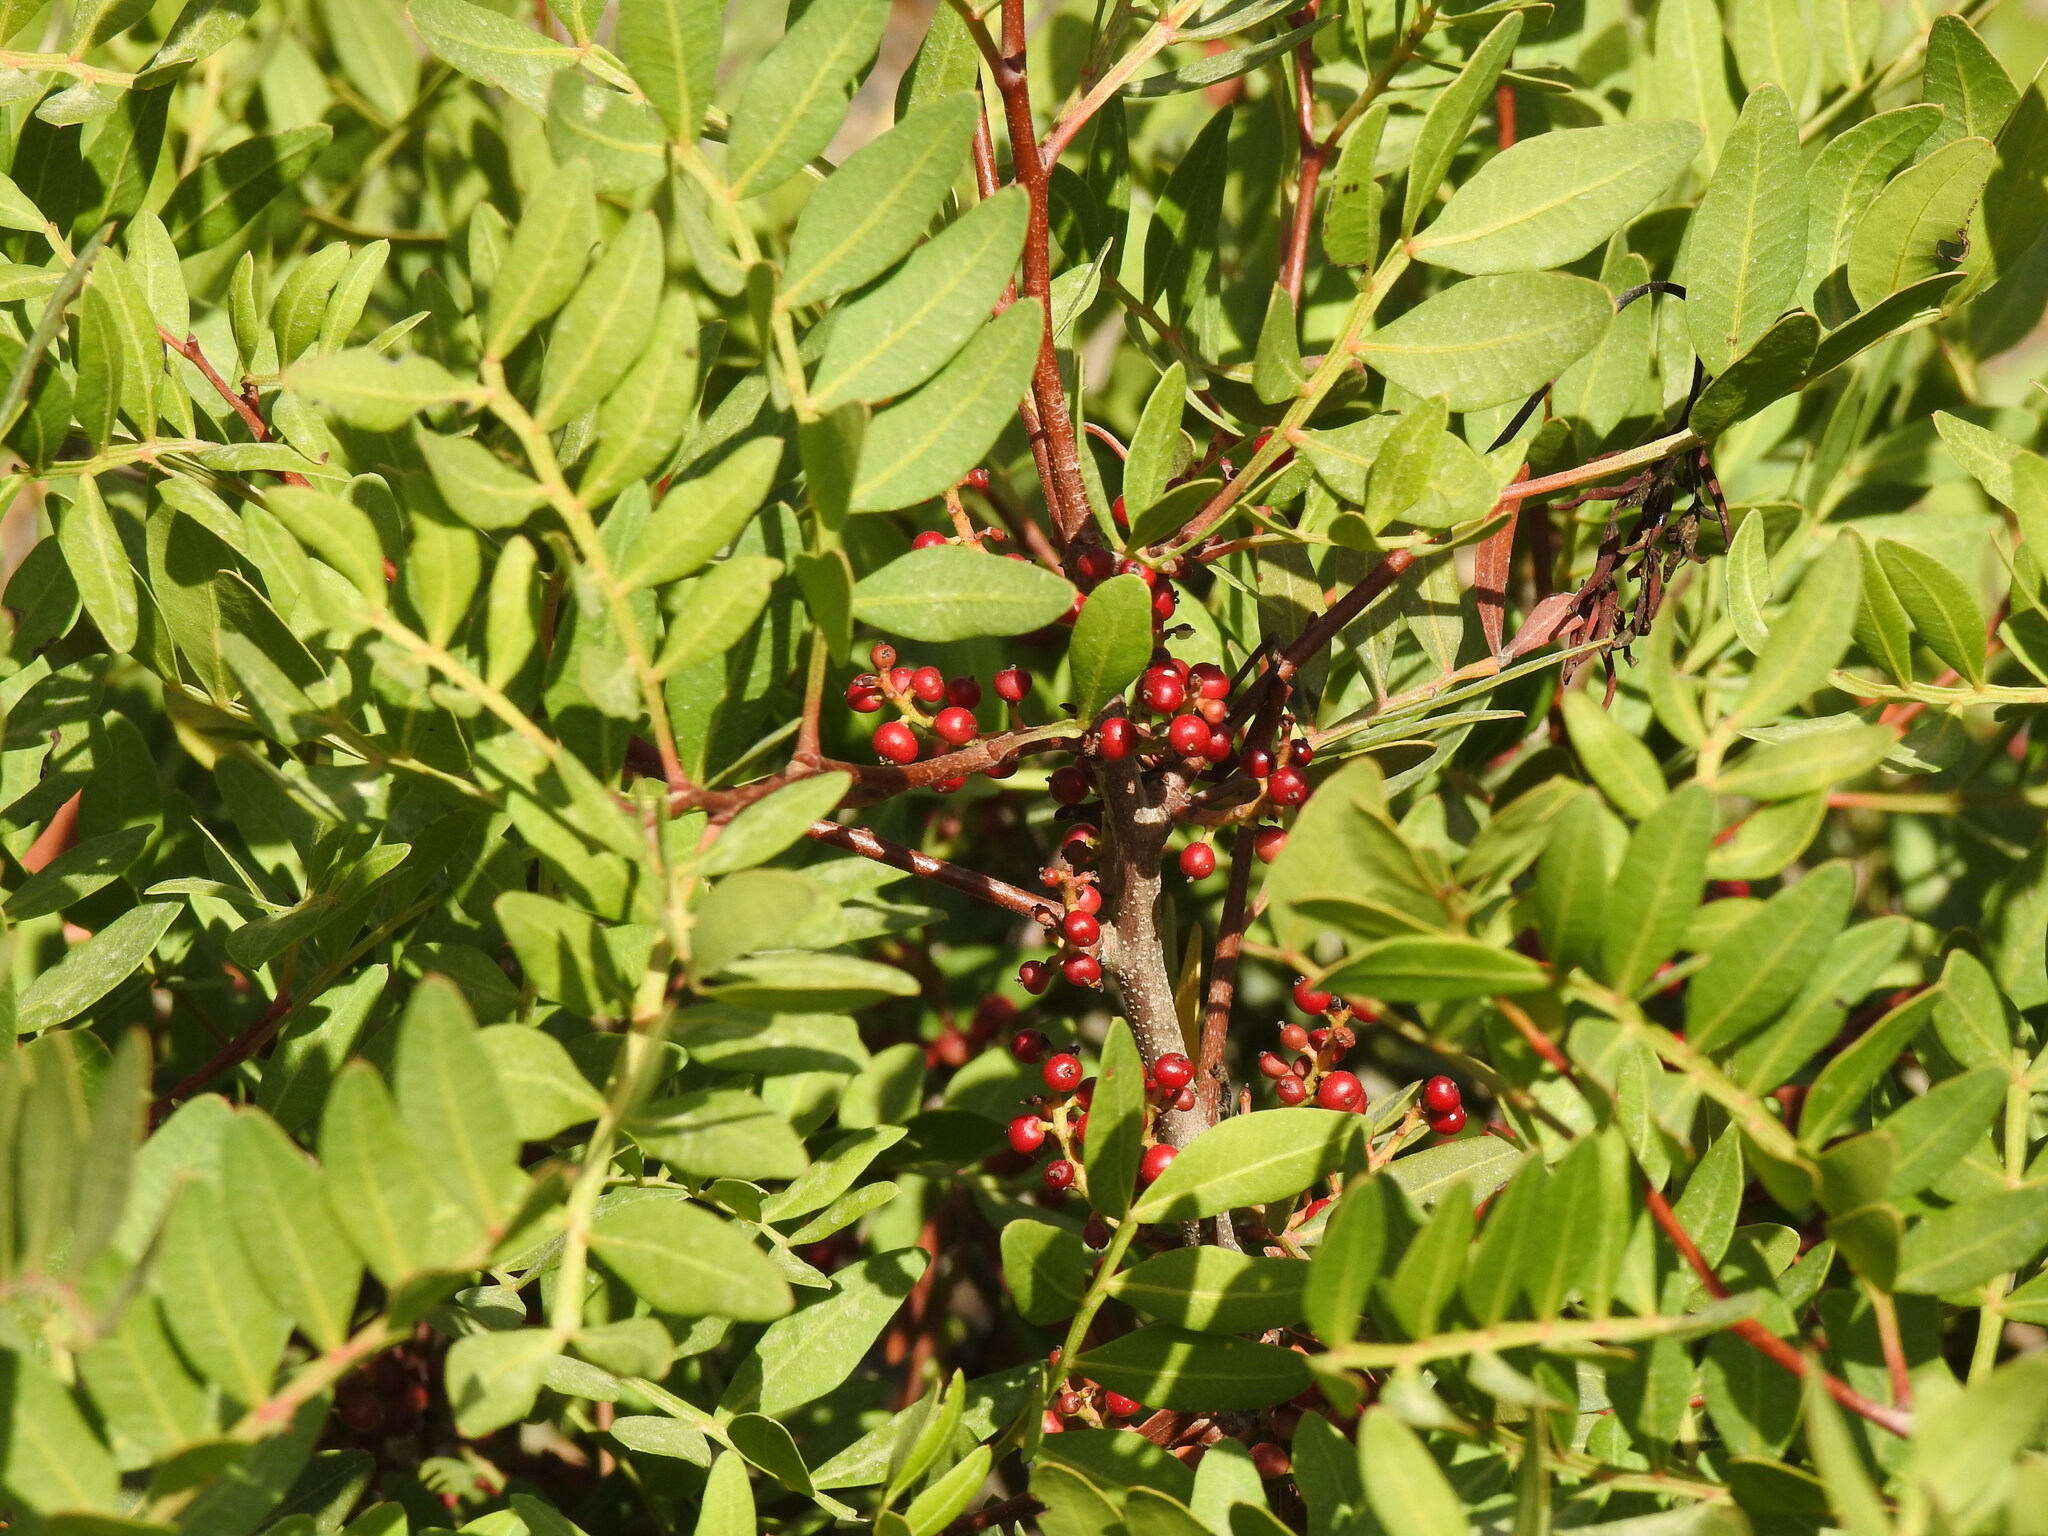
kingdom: Plantae
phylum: Tracheophyta
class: Magnoliopsida
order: Sapindales
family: Anacardiaceae
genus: Pistacia
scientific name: Pistacia lentiscus
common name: Lentisk
